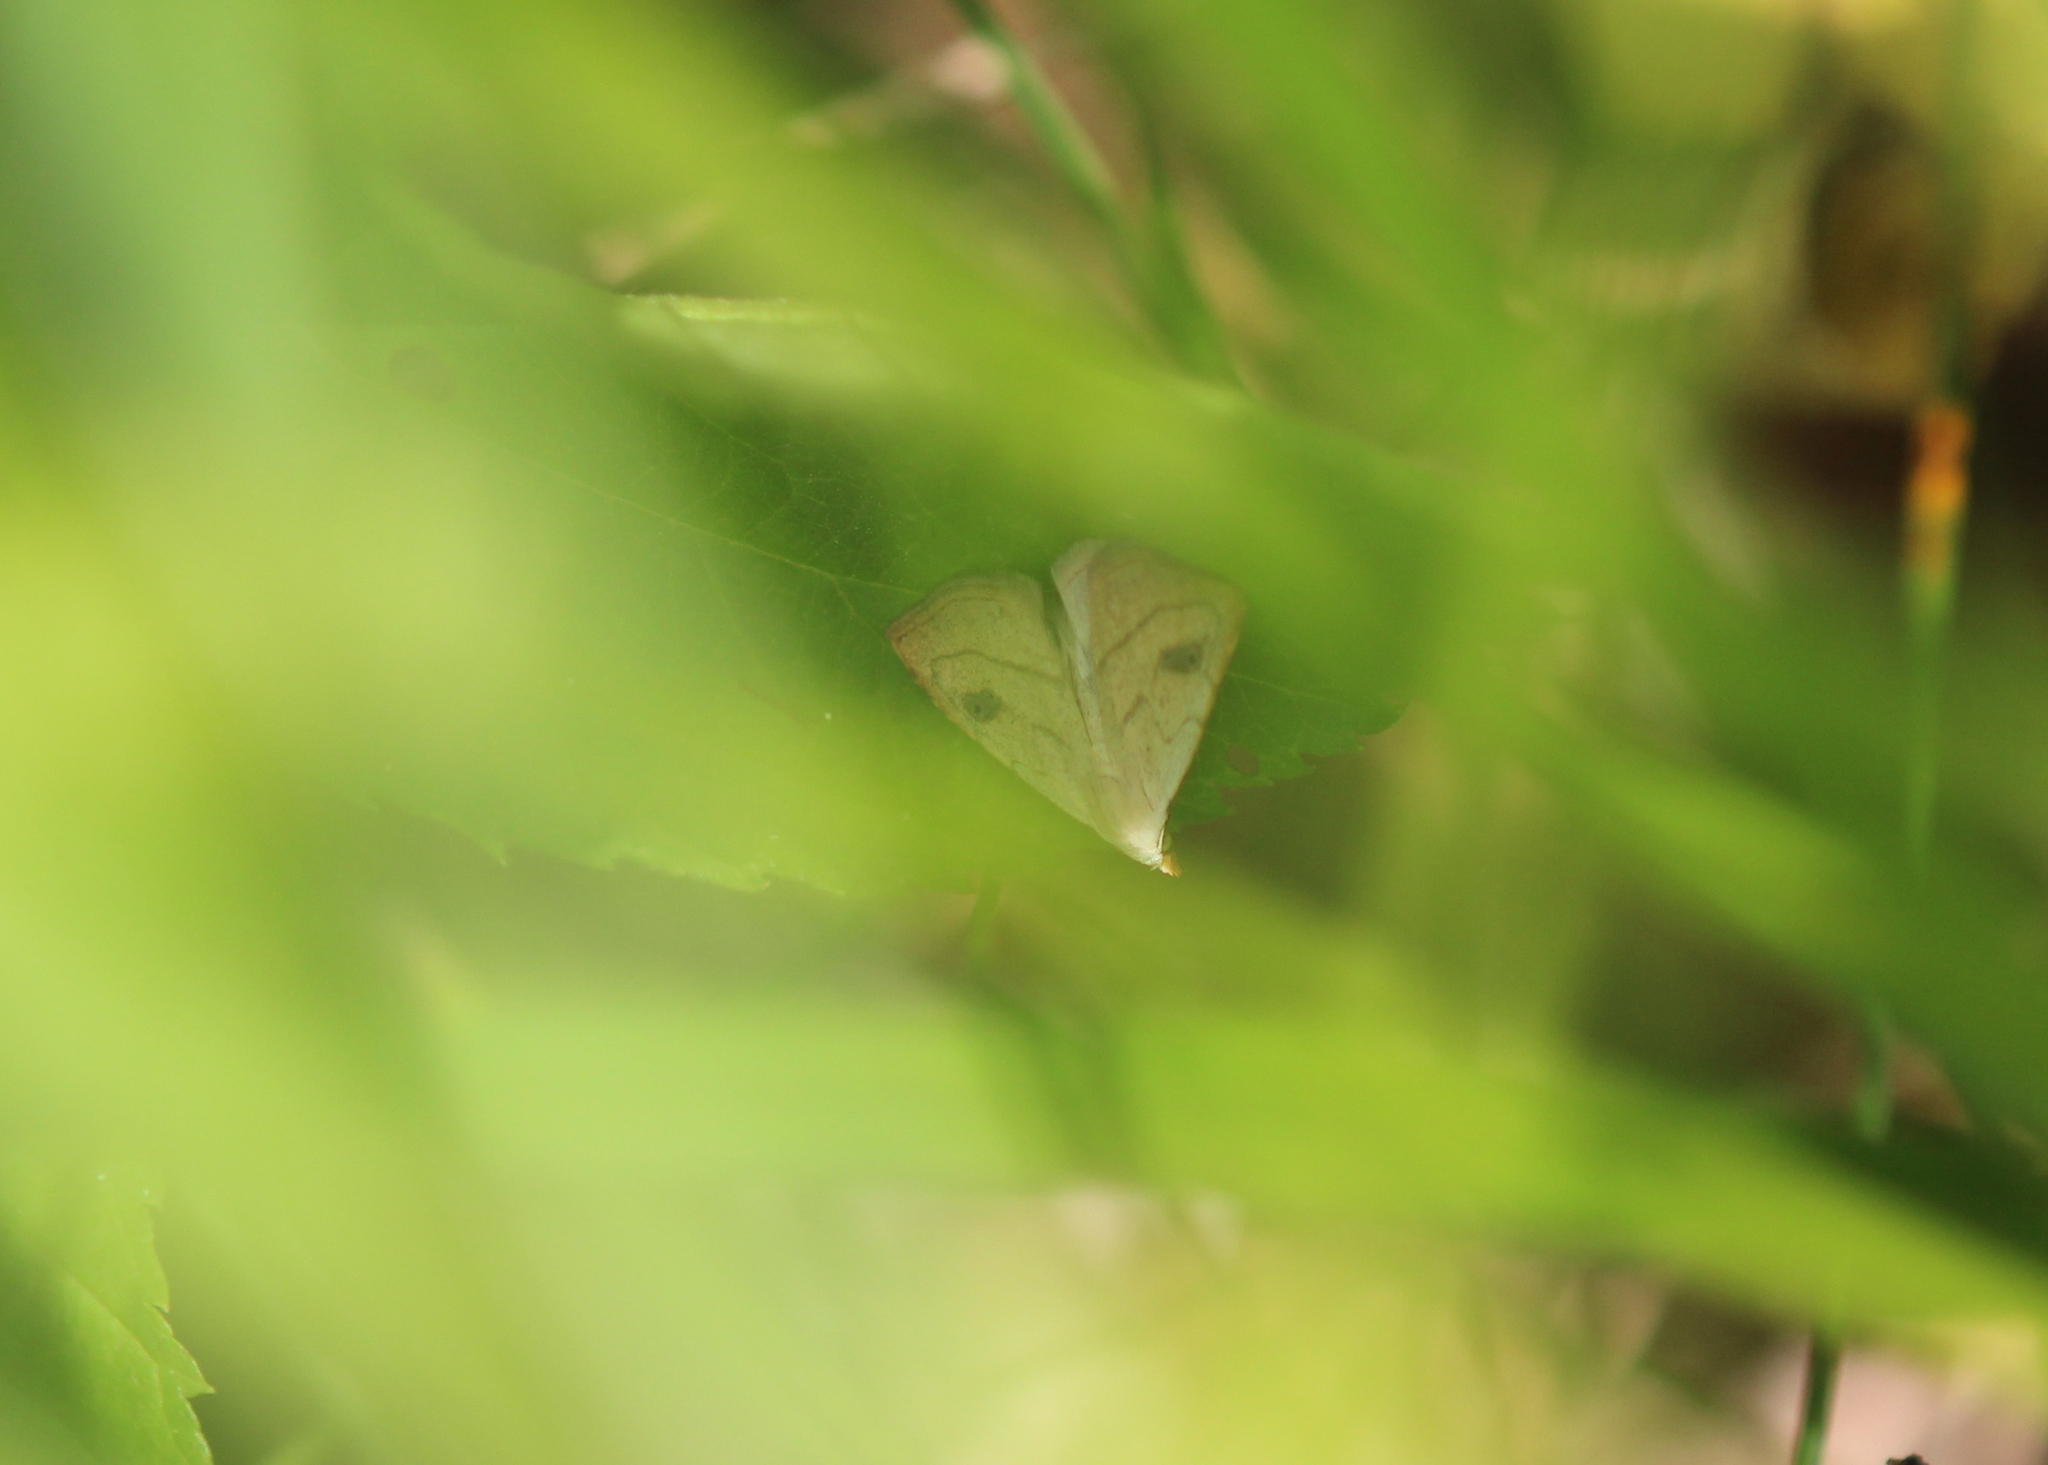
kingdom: Animalia
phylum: Arthropoda
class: Insecta
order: Lepidoptera
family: Erebidae
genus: Rivula
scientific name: Rivula propinqualis
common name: Spotted grass moth
